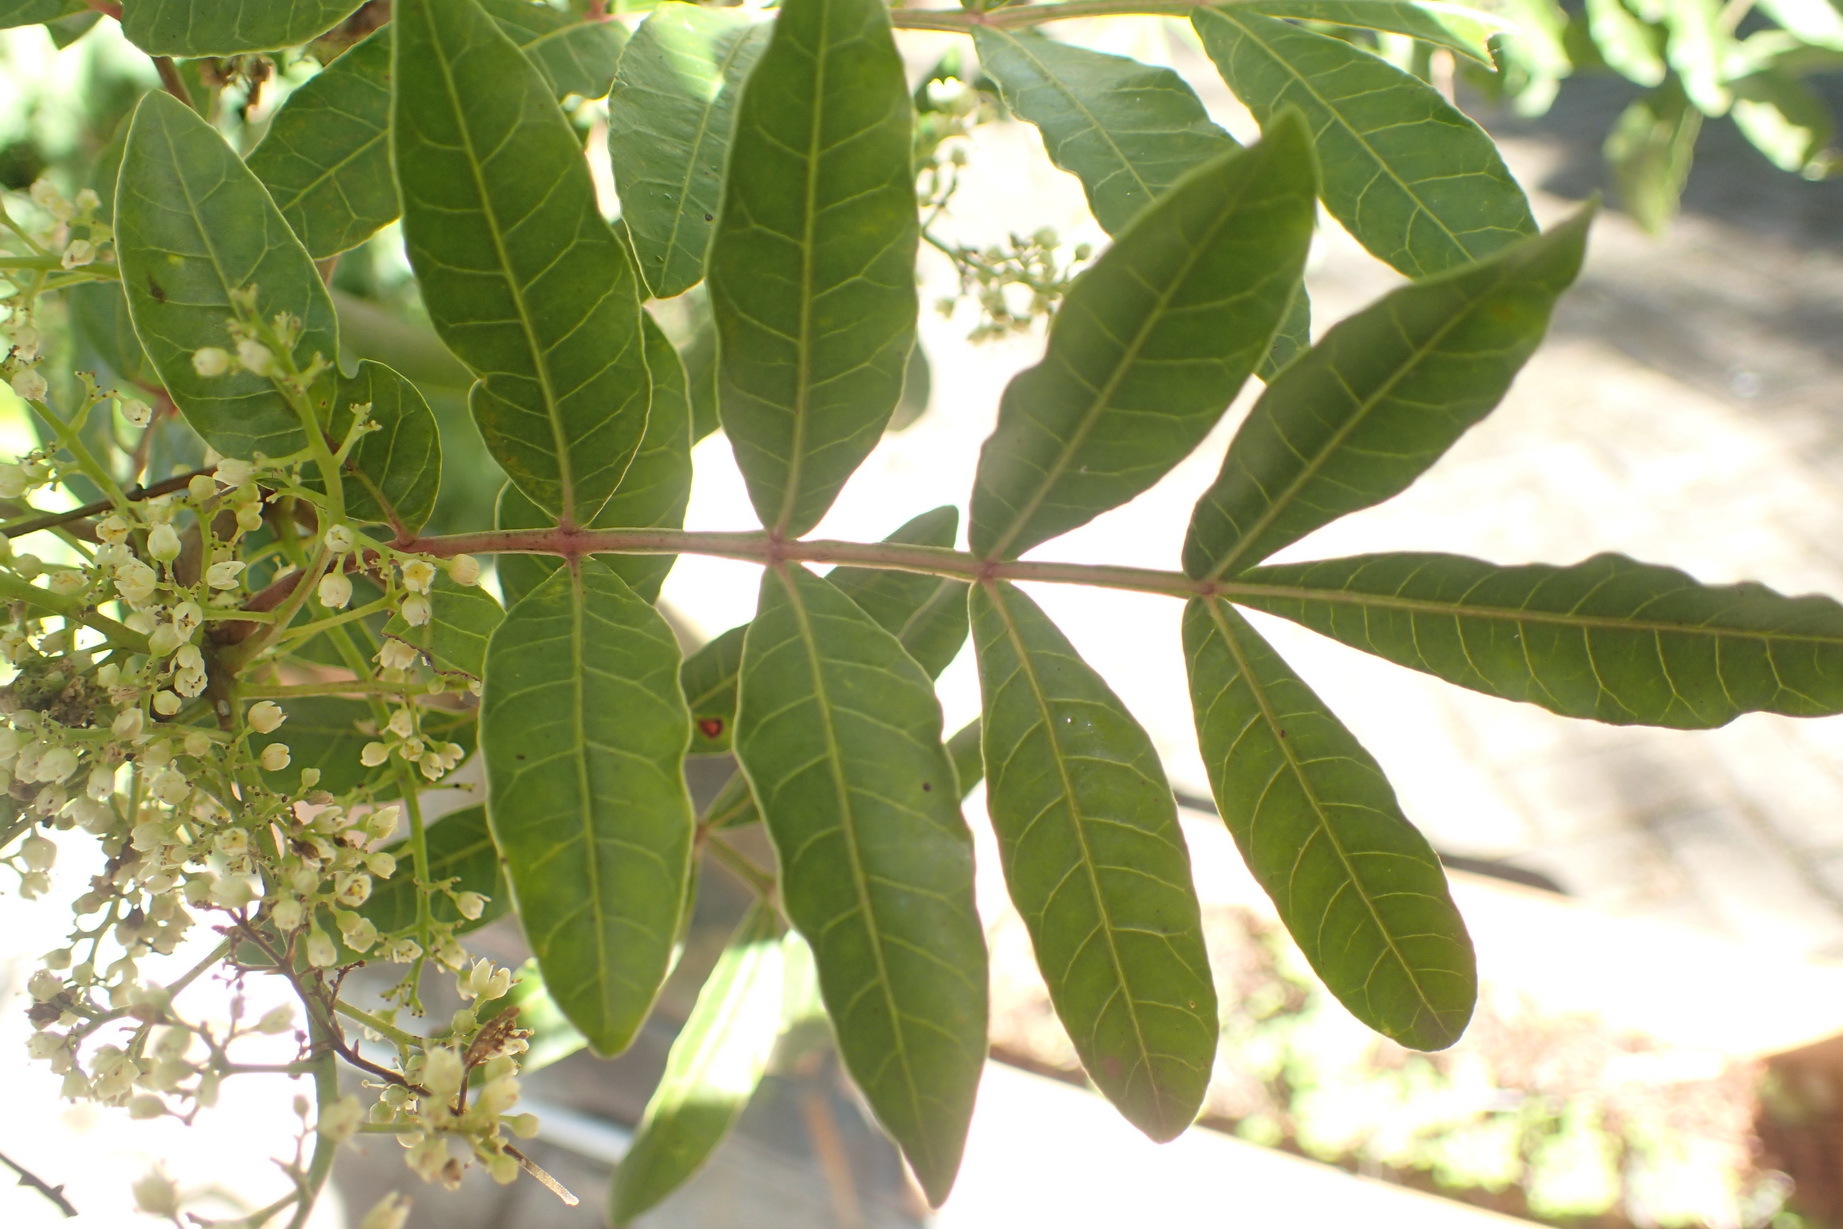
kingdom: Plantae
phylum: Tracheophyta
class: Magnoliopsida
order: Sapindales
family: Anacardiaceae
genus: Schinus
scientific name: Schinus terebinthifolia
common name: Brazilian peppertree
